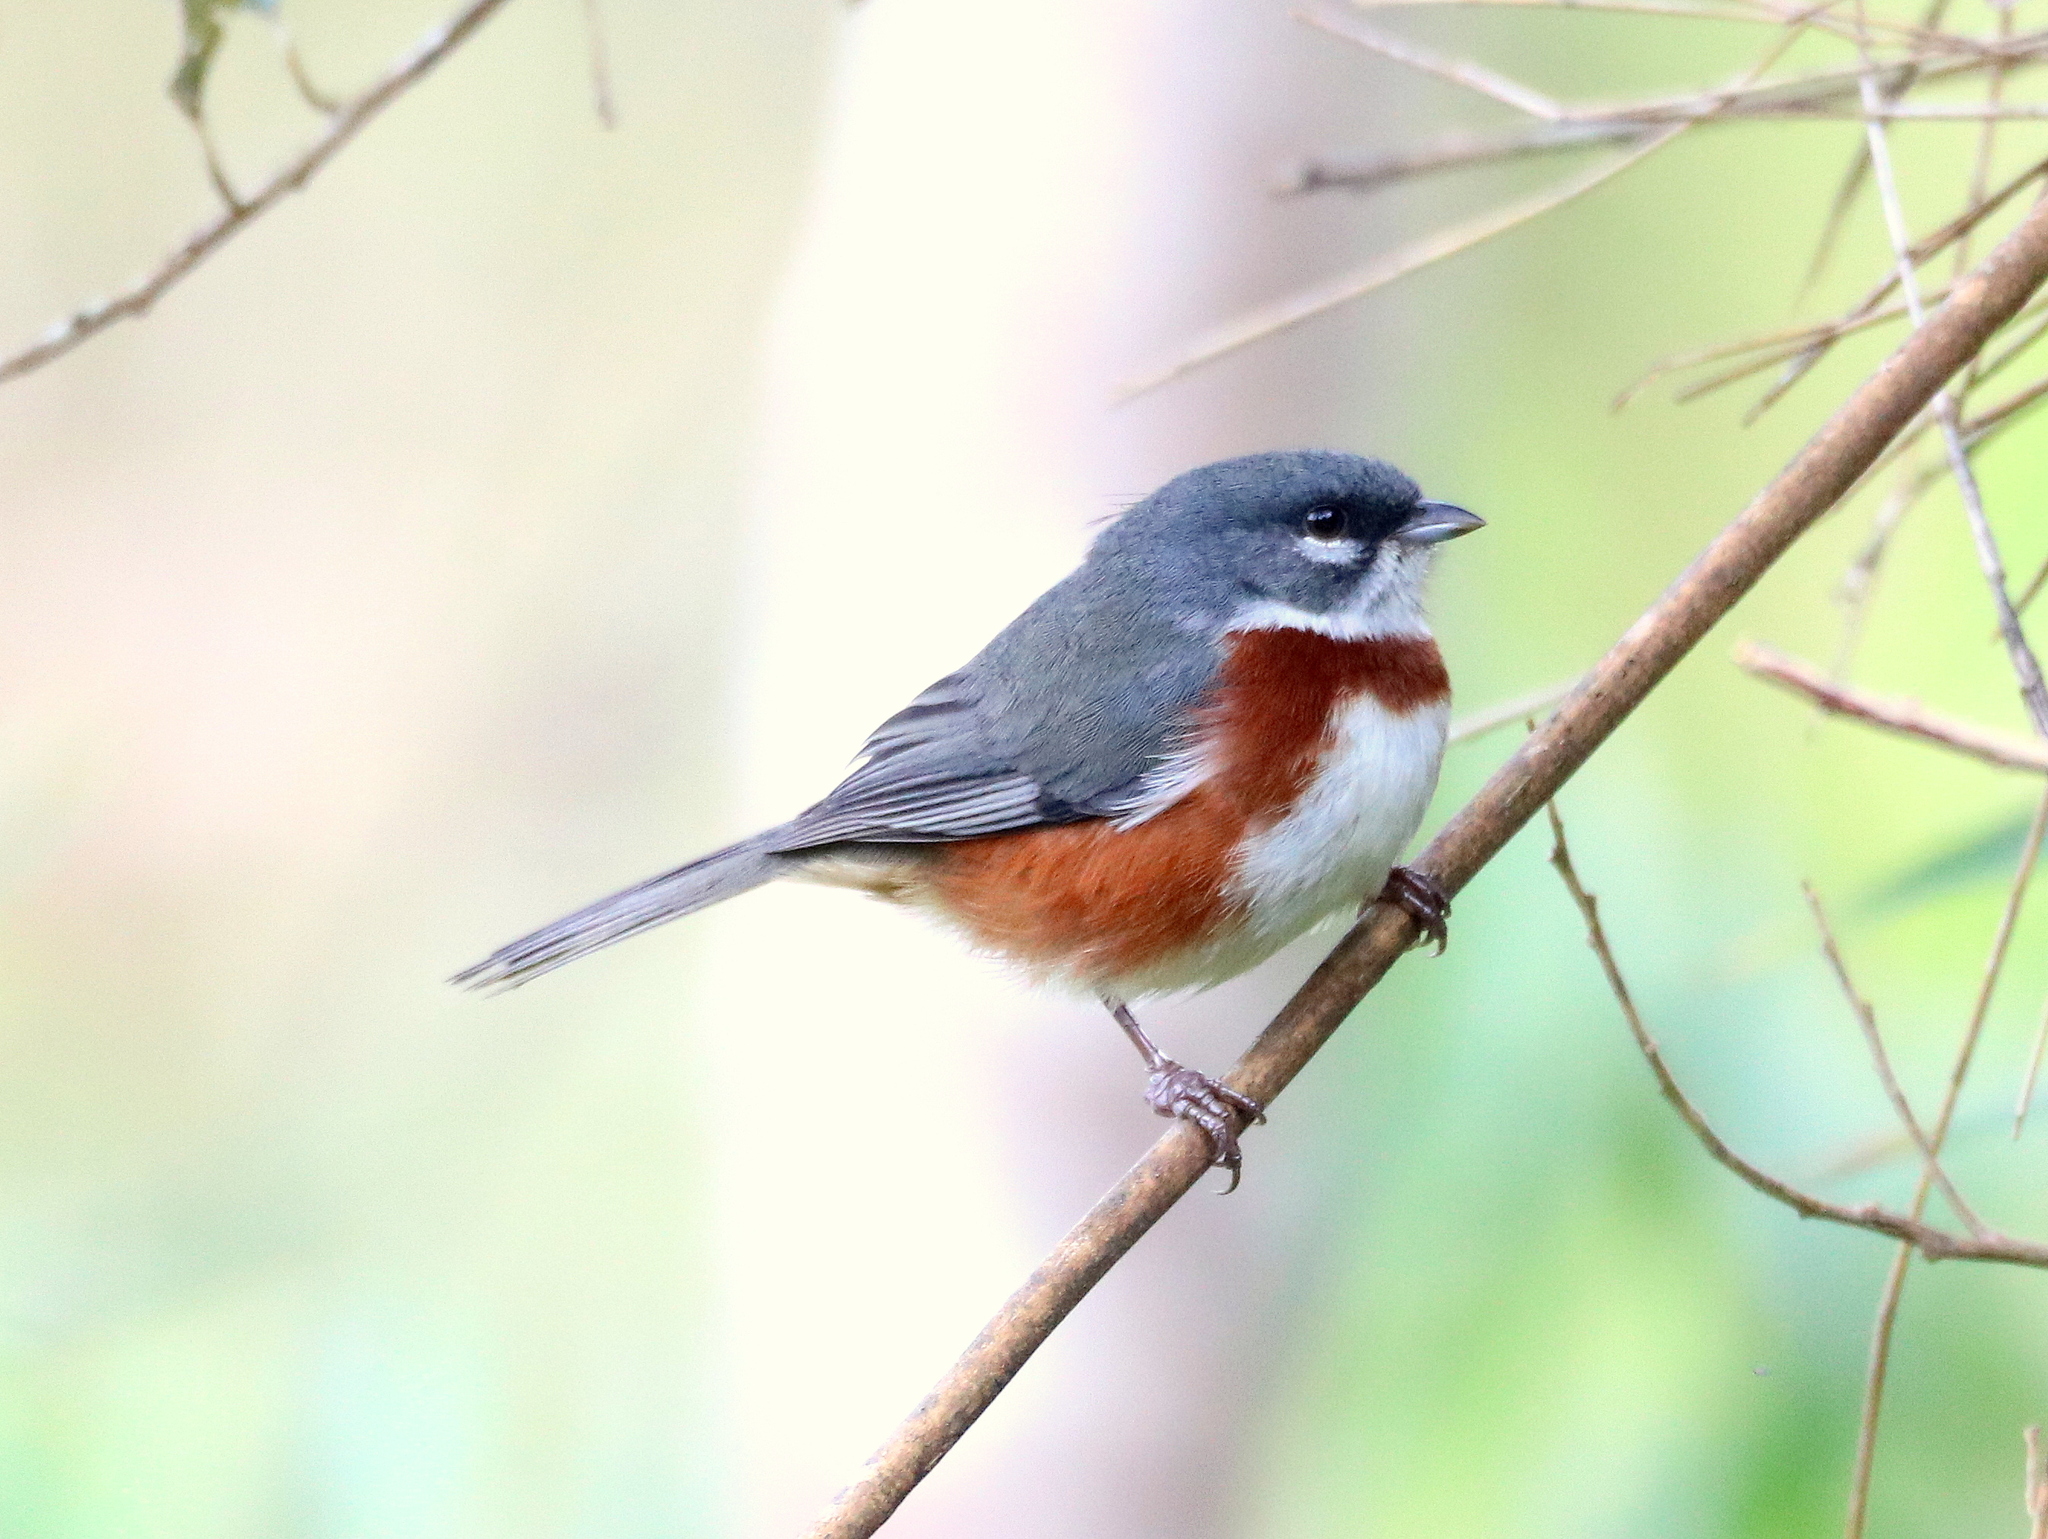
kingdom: Animalia
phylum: Chordata
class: Aves
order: Passeriformes
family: Thraupidae
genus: Castanozoster
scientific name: Castanozoster thoracicus
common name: Bay-chested warbling-finch
